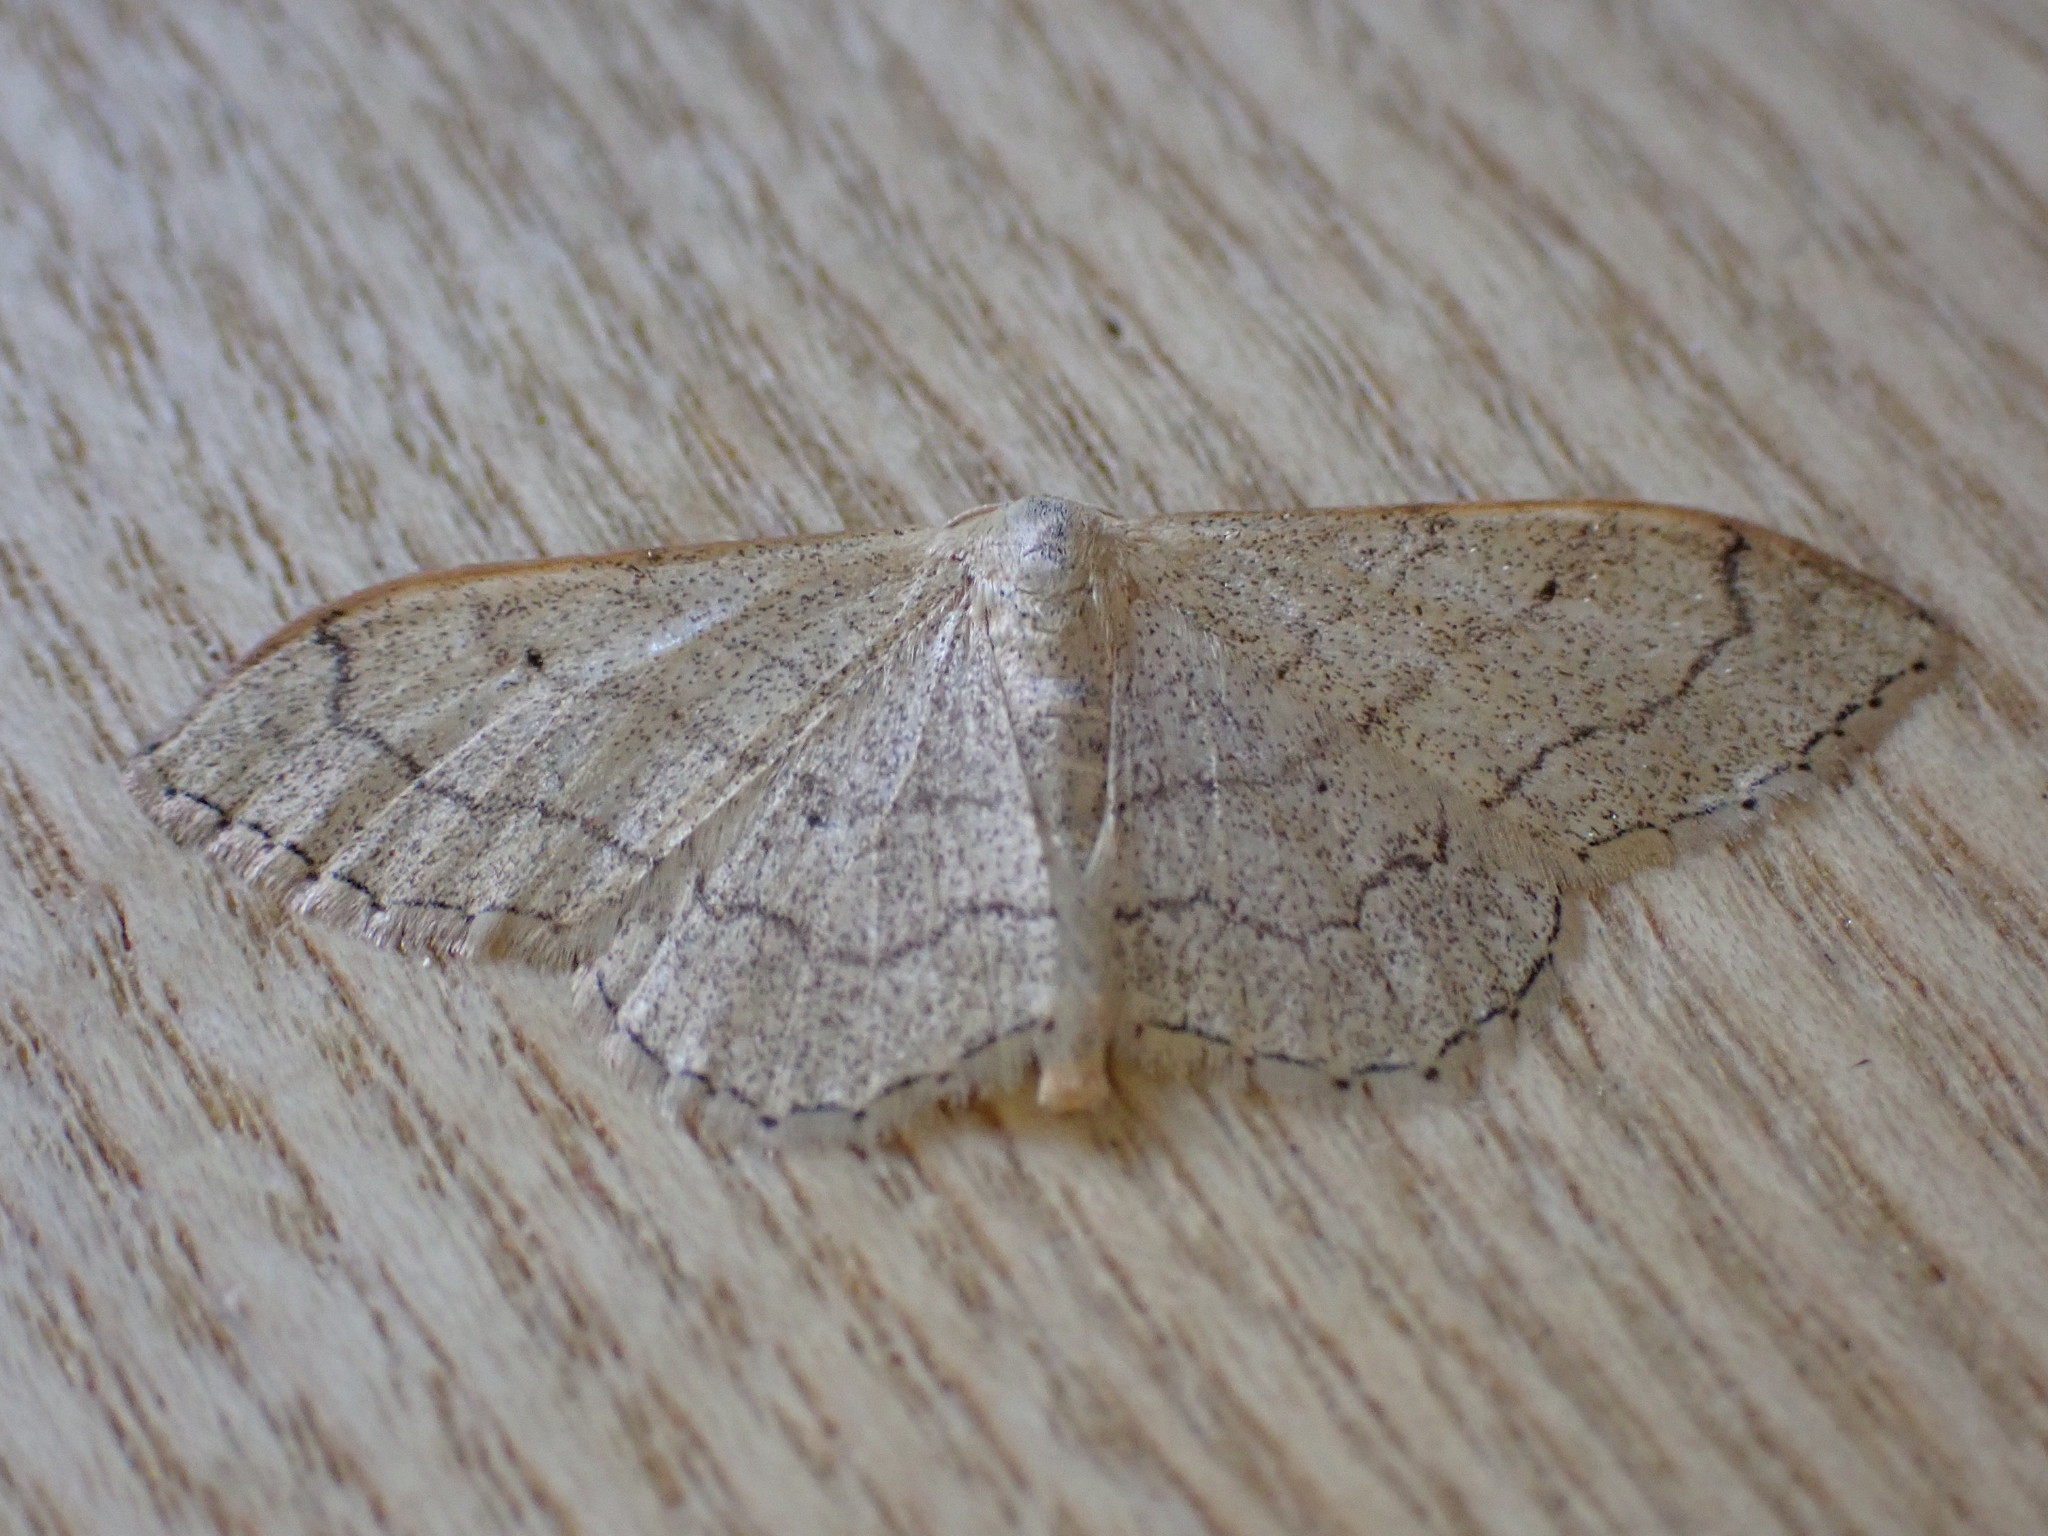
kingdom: Animalia
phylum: Arthropoda
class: Insecta
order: Lepidoptera
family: Geometridae
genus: Idaea
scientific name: Idaea aversata
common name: Riband wave
